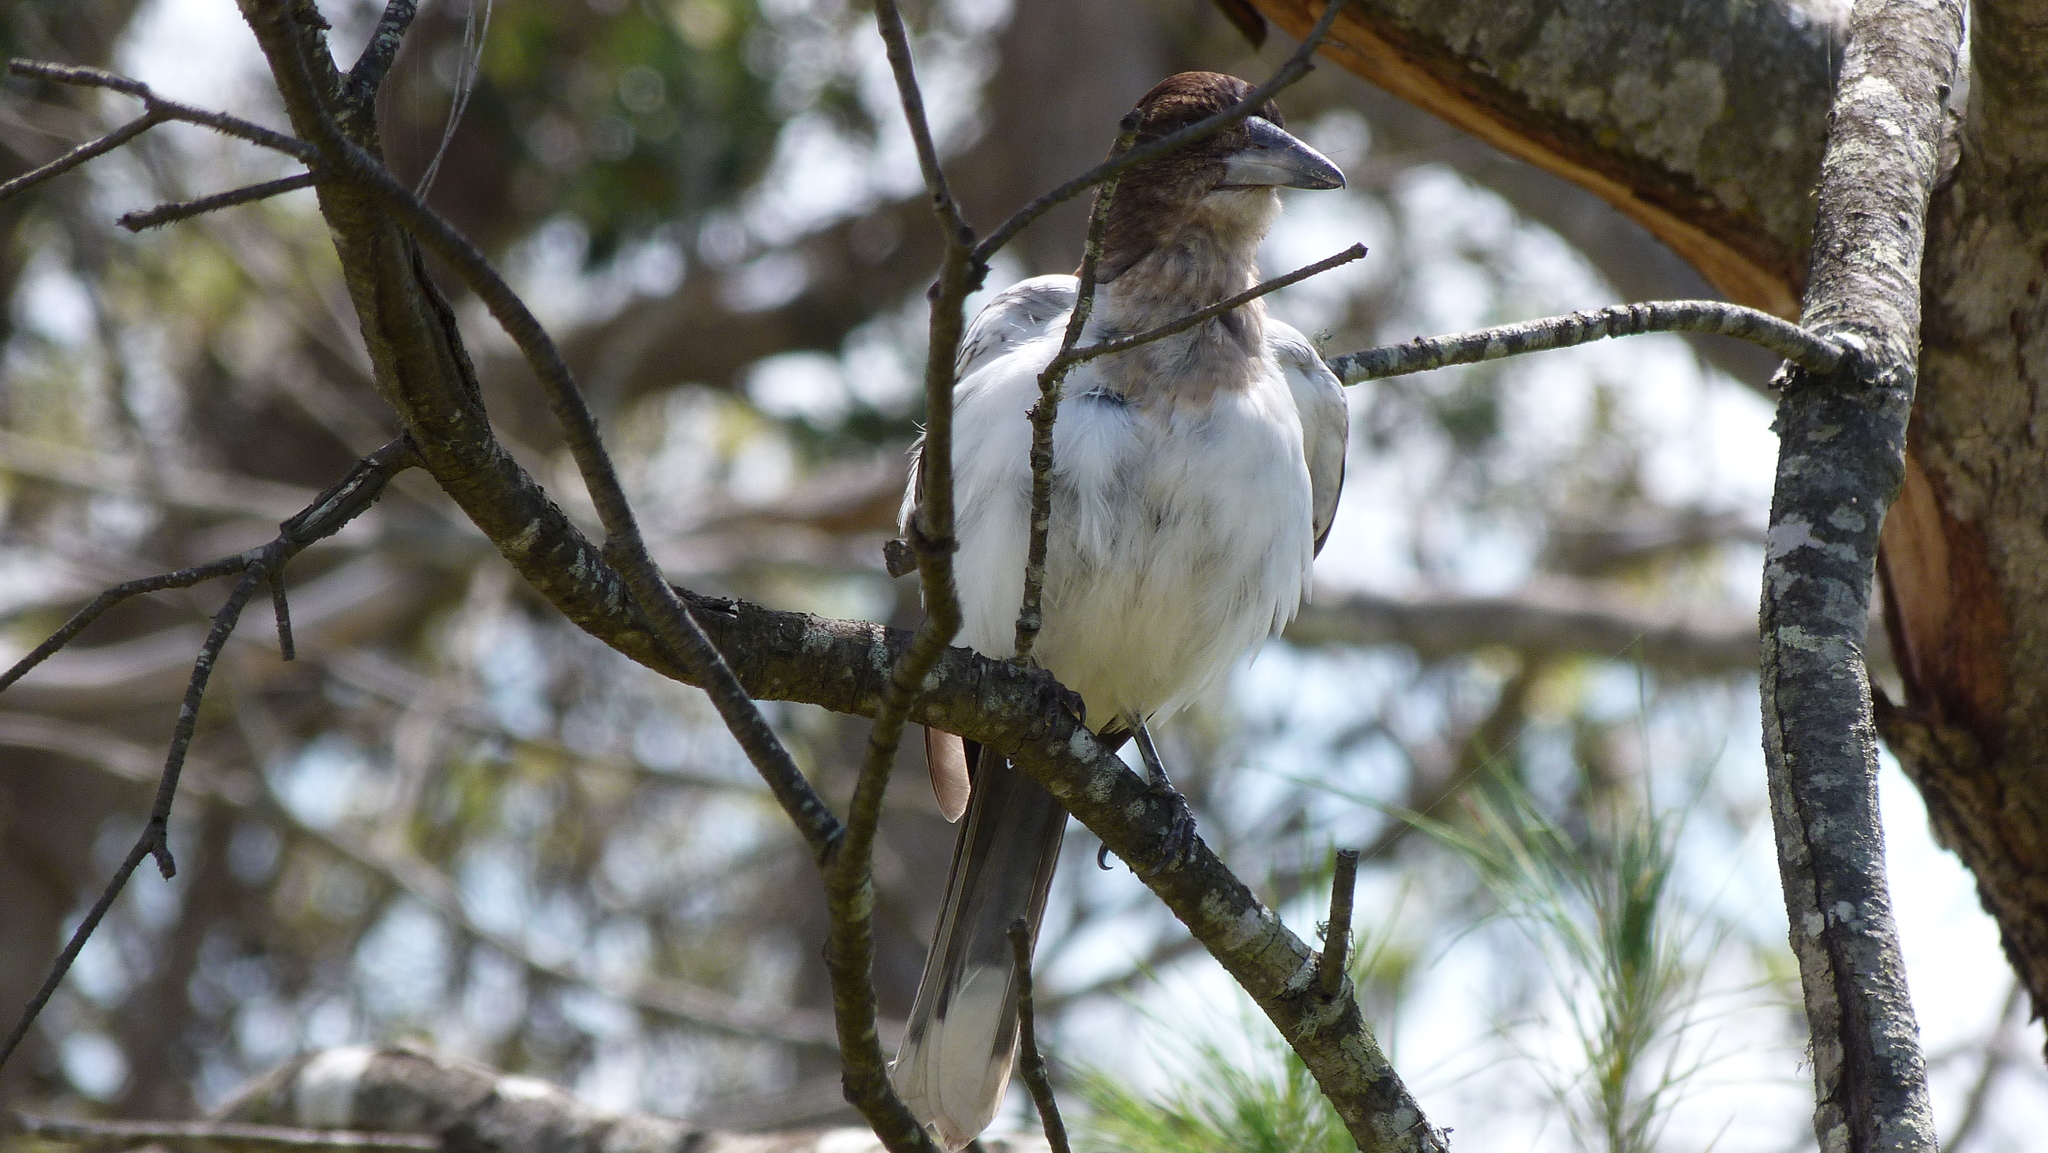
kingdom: Animalia
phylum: Chordata
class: Aves
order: Passeriformes
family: Cracticidae
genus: Cracticus
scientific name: Cracticus nigrogularis
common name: Pied butcherbird
